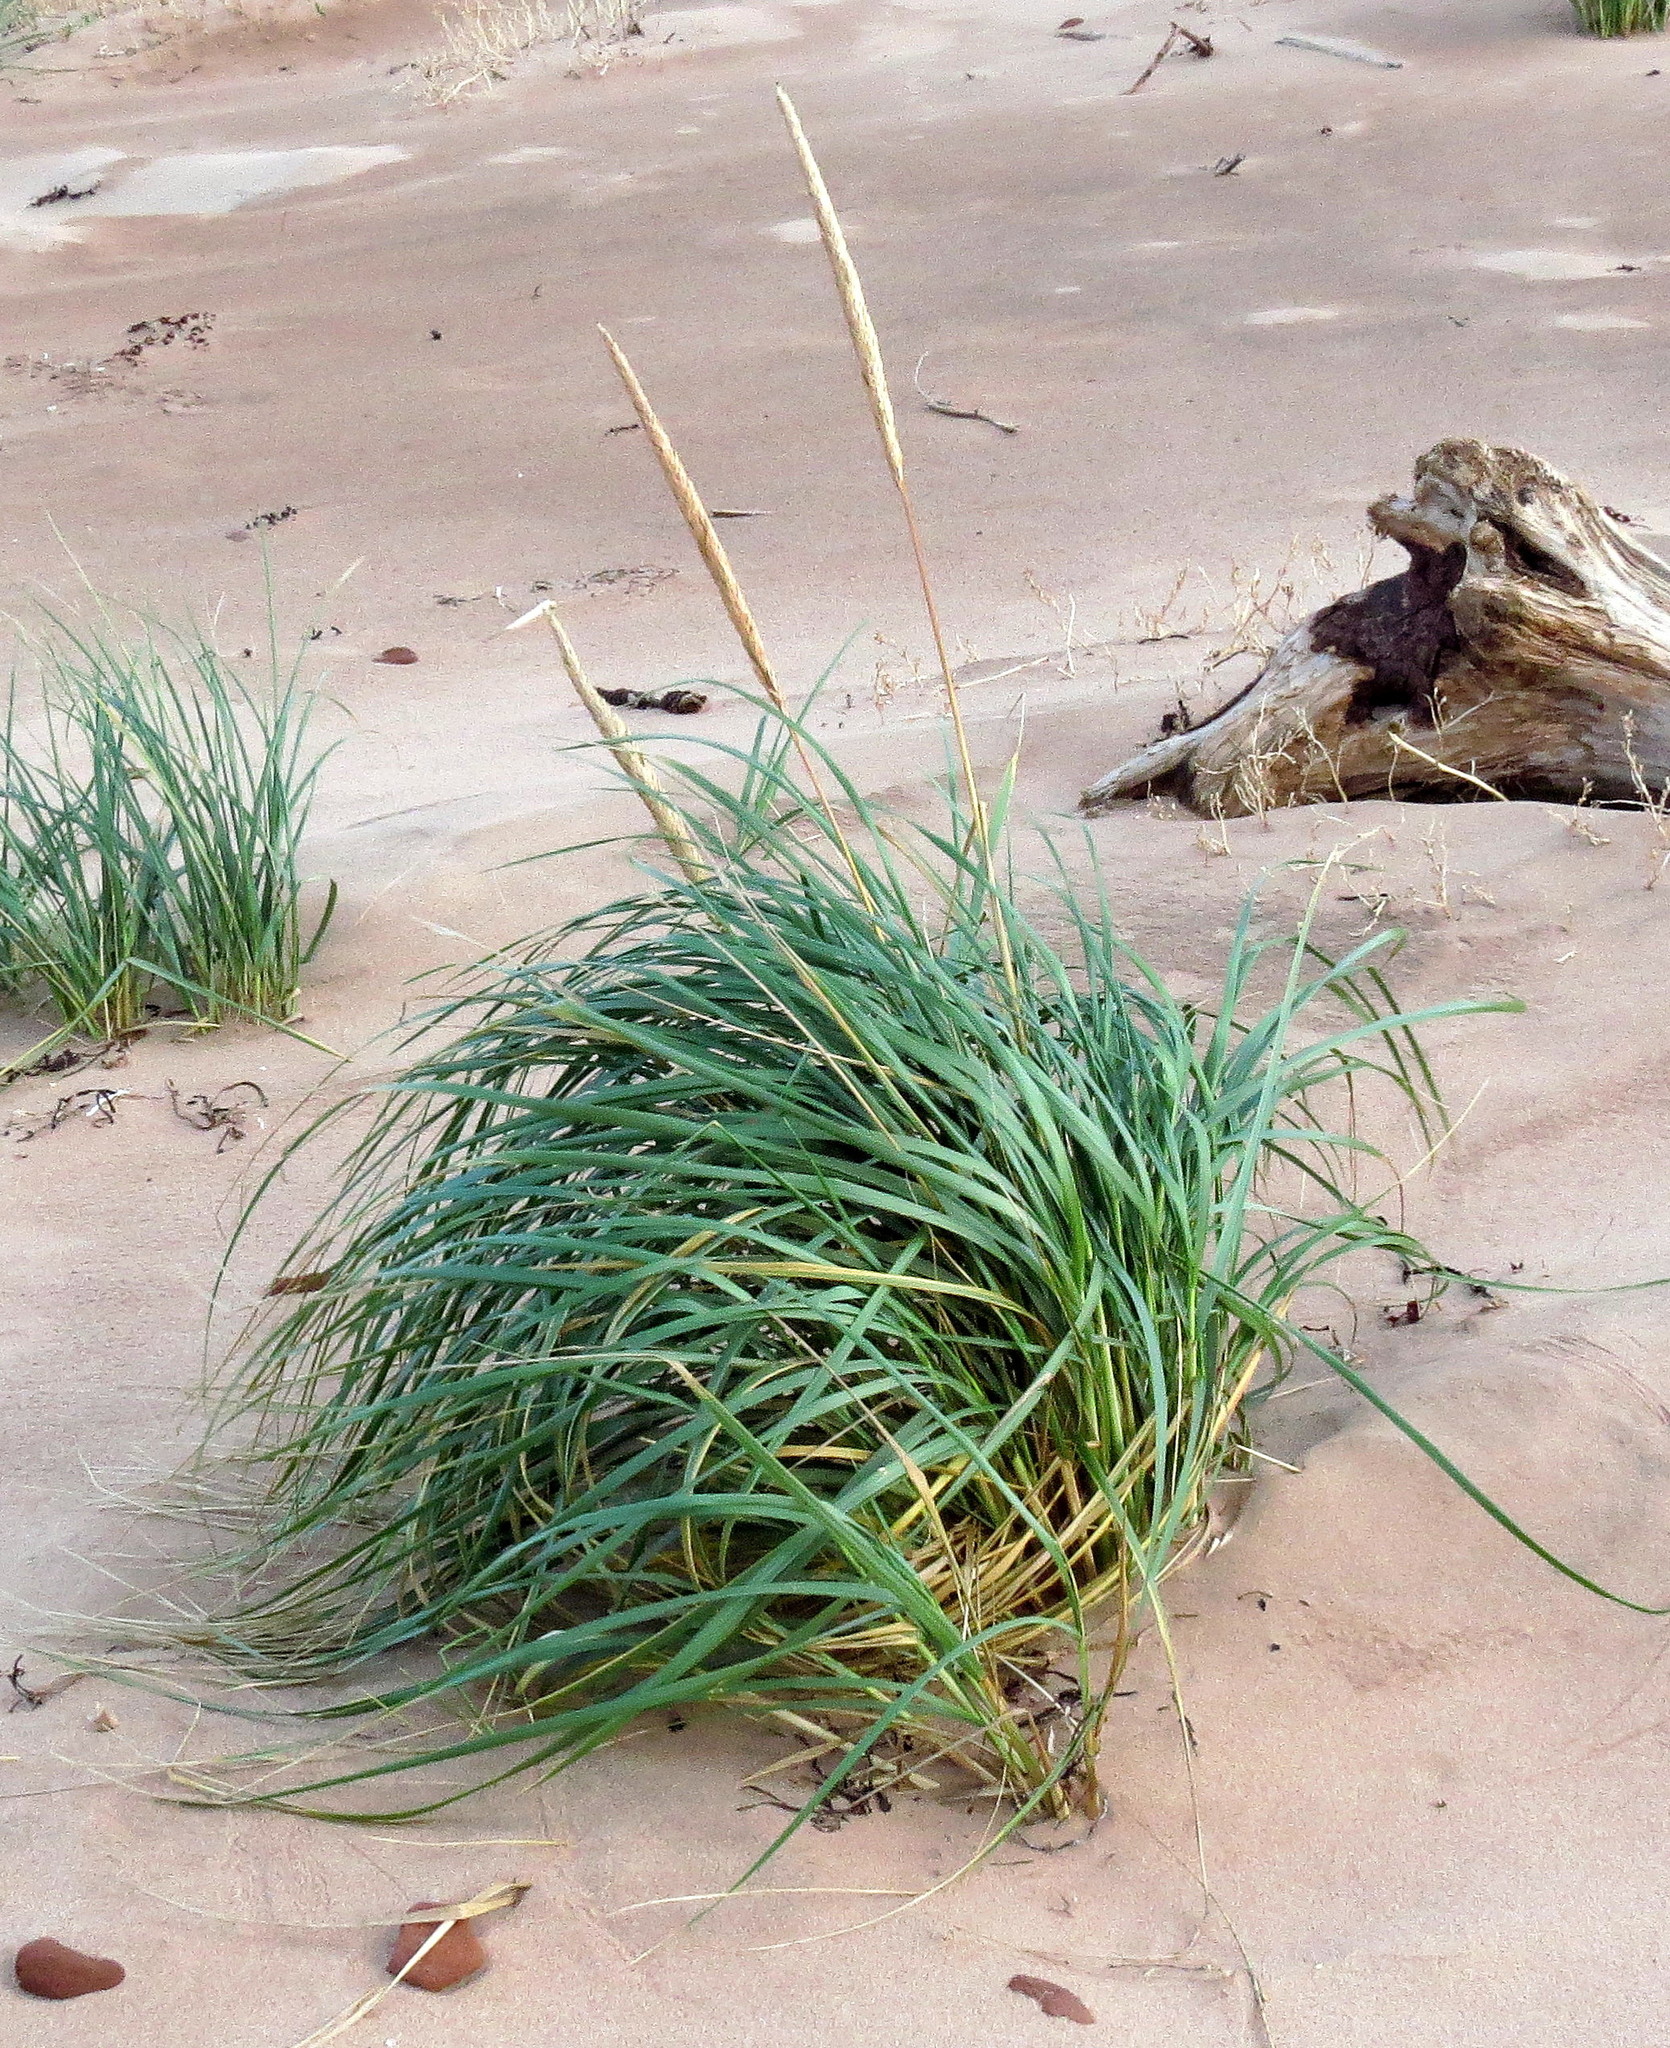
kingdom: Plantae
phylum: Tracheophyta
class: Liliopsida
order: Poales
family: Poaceae
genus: Calamagrostis
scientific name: Calamagrostis breviligulata
